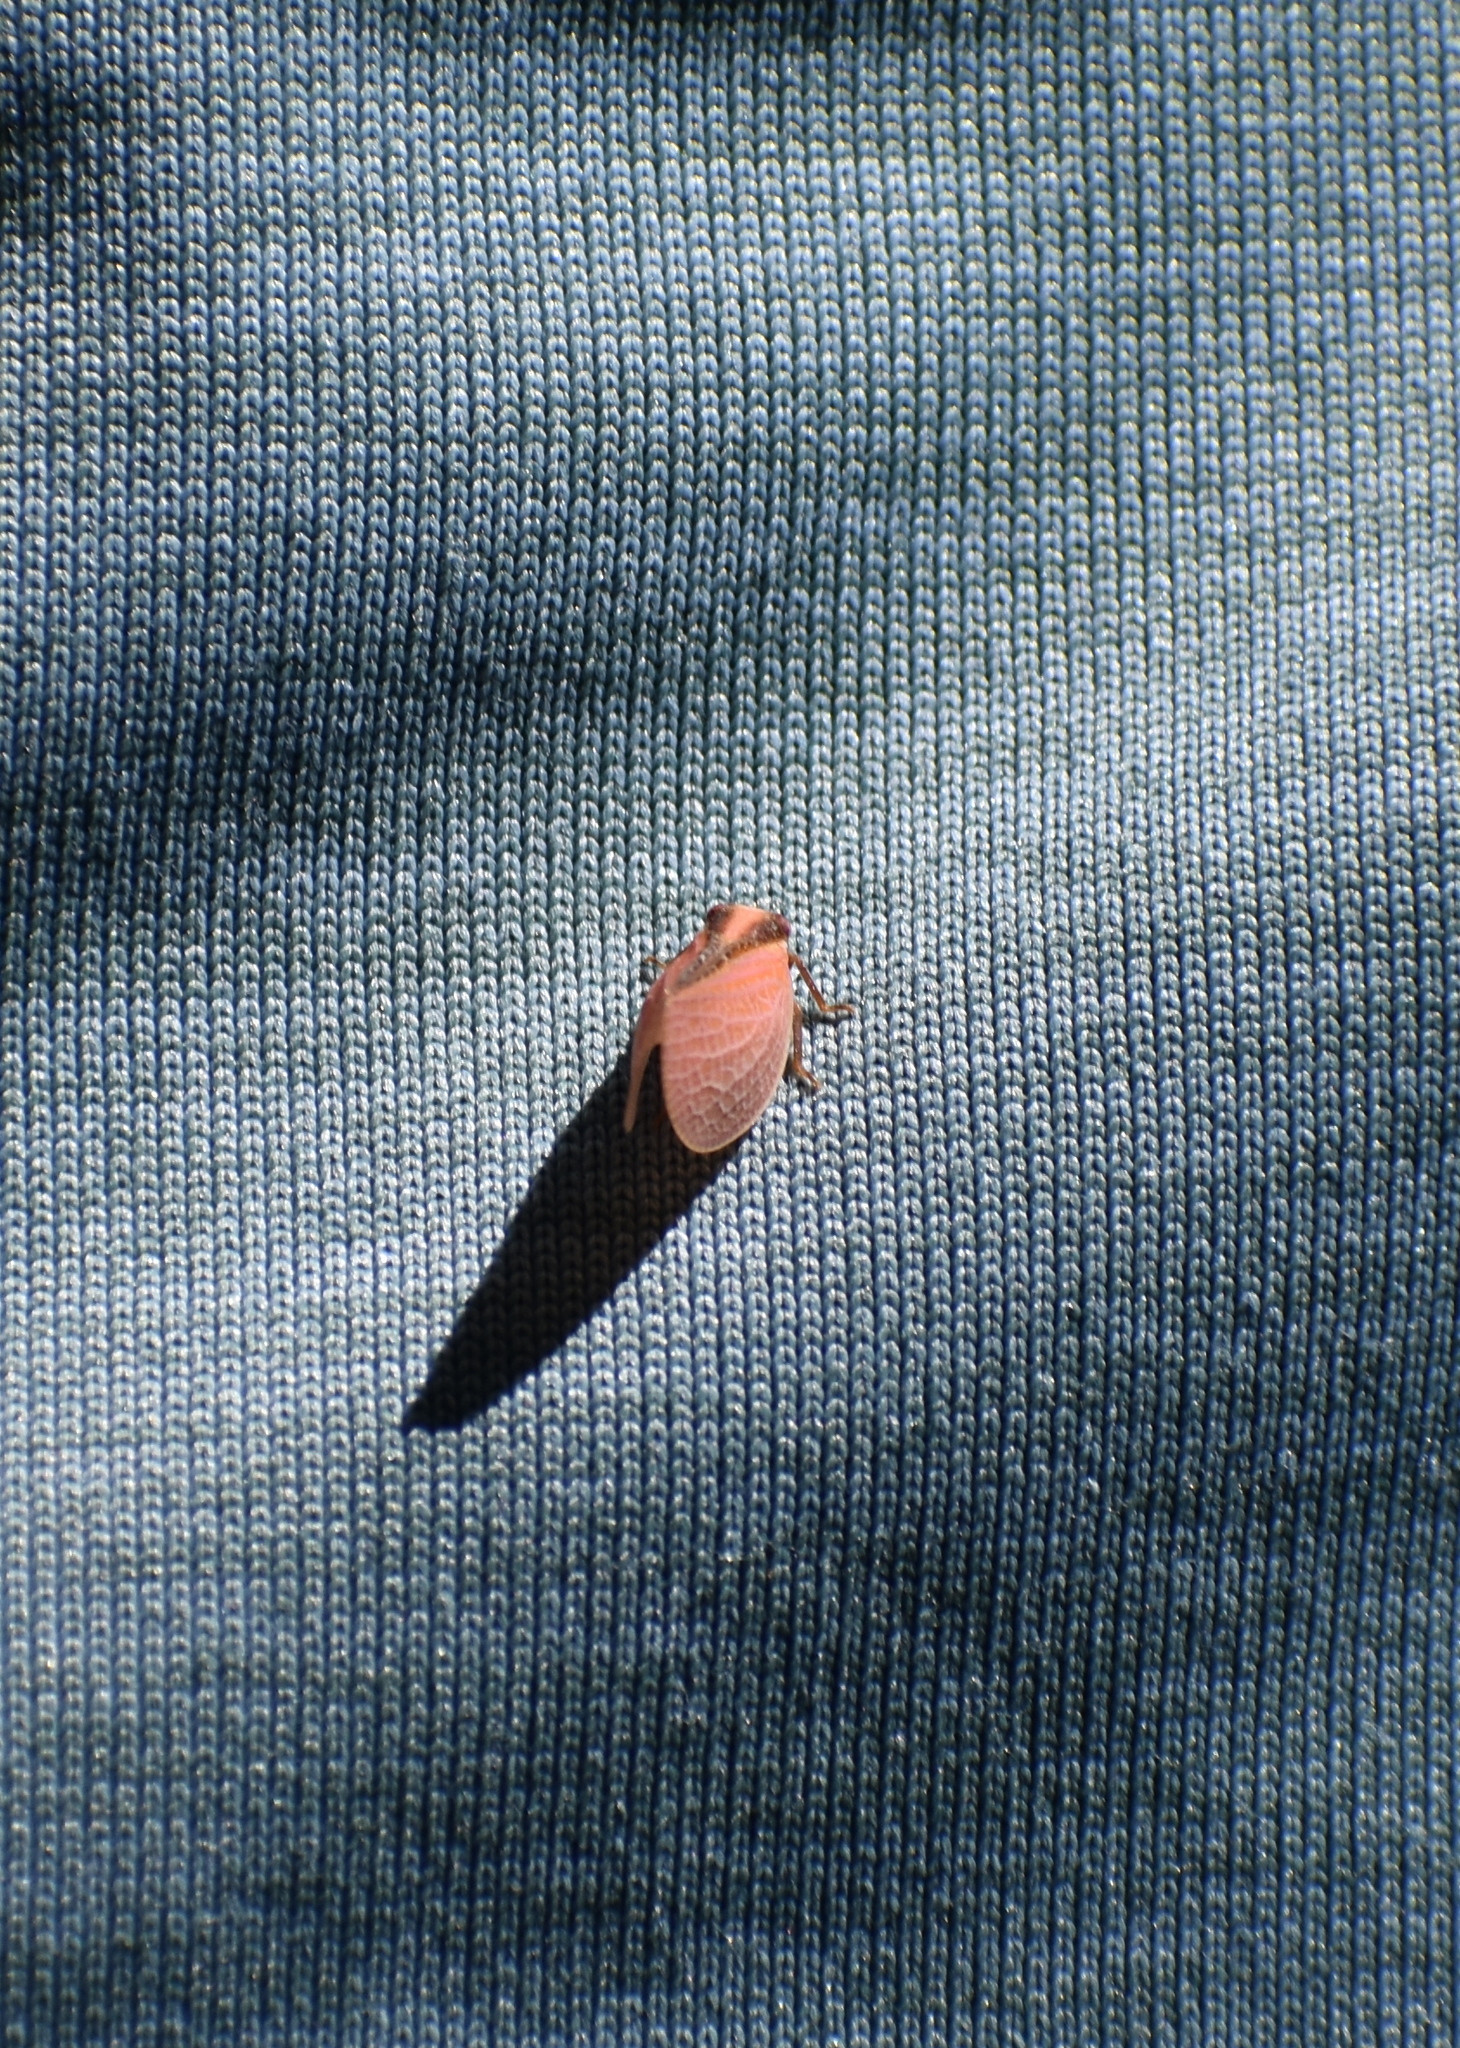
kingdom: Animalia
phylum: Arthropoda
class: Insecta
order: Hemiptera
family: Acanaloniidae
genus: Acanalonia
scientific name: Acanalonia bivittata
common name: Two-striped planthopper
